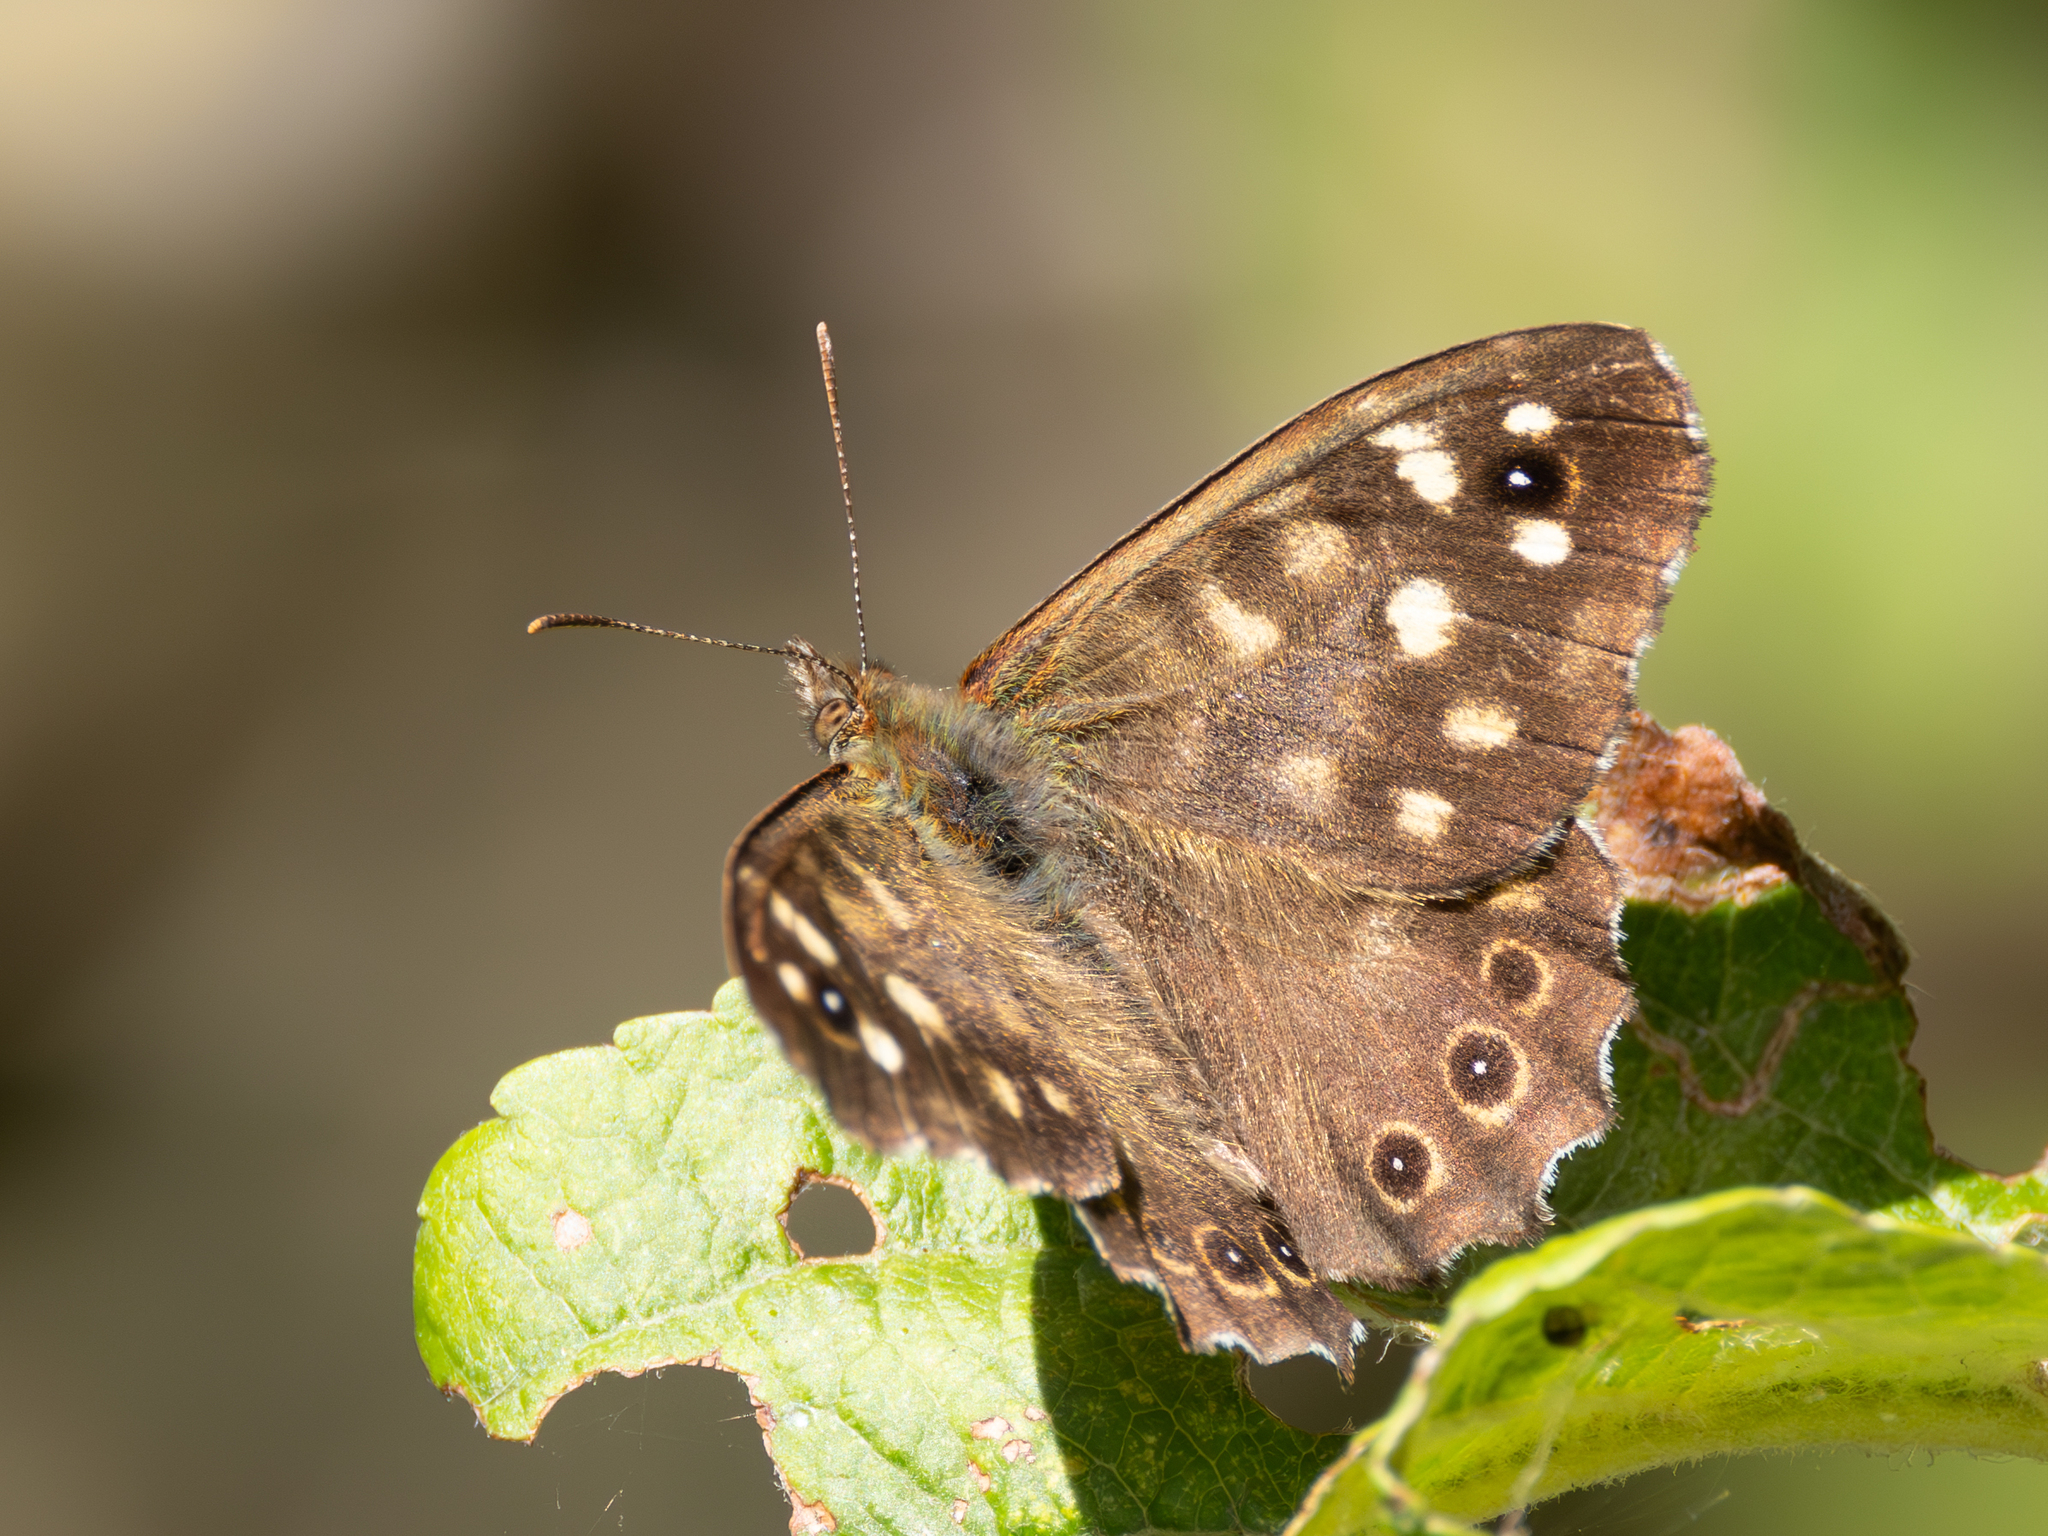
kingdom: Animalia
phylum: Arthropoda
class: Insecta
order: Lepidoptera
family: Nymphalidae
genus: Pararge
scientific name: Pararge aegeria
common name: Speckled wood
